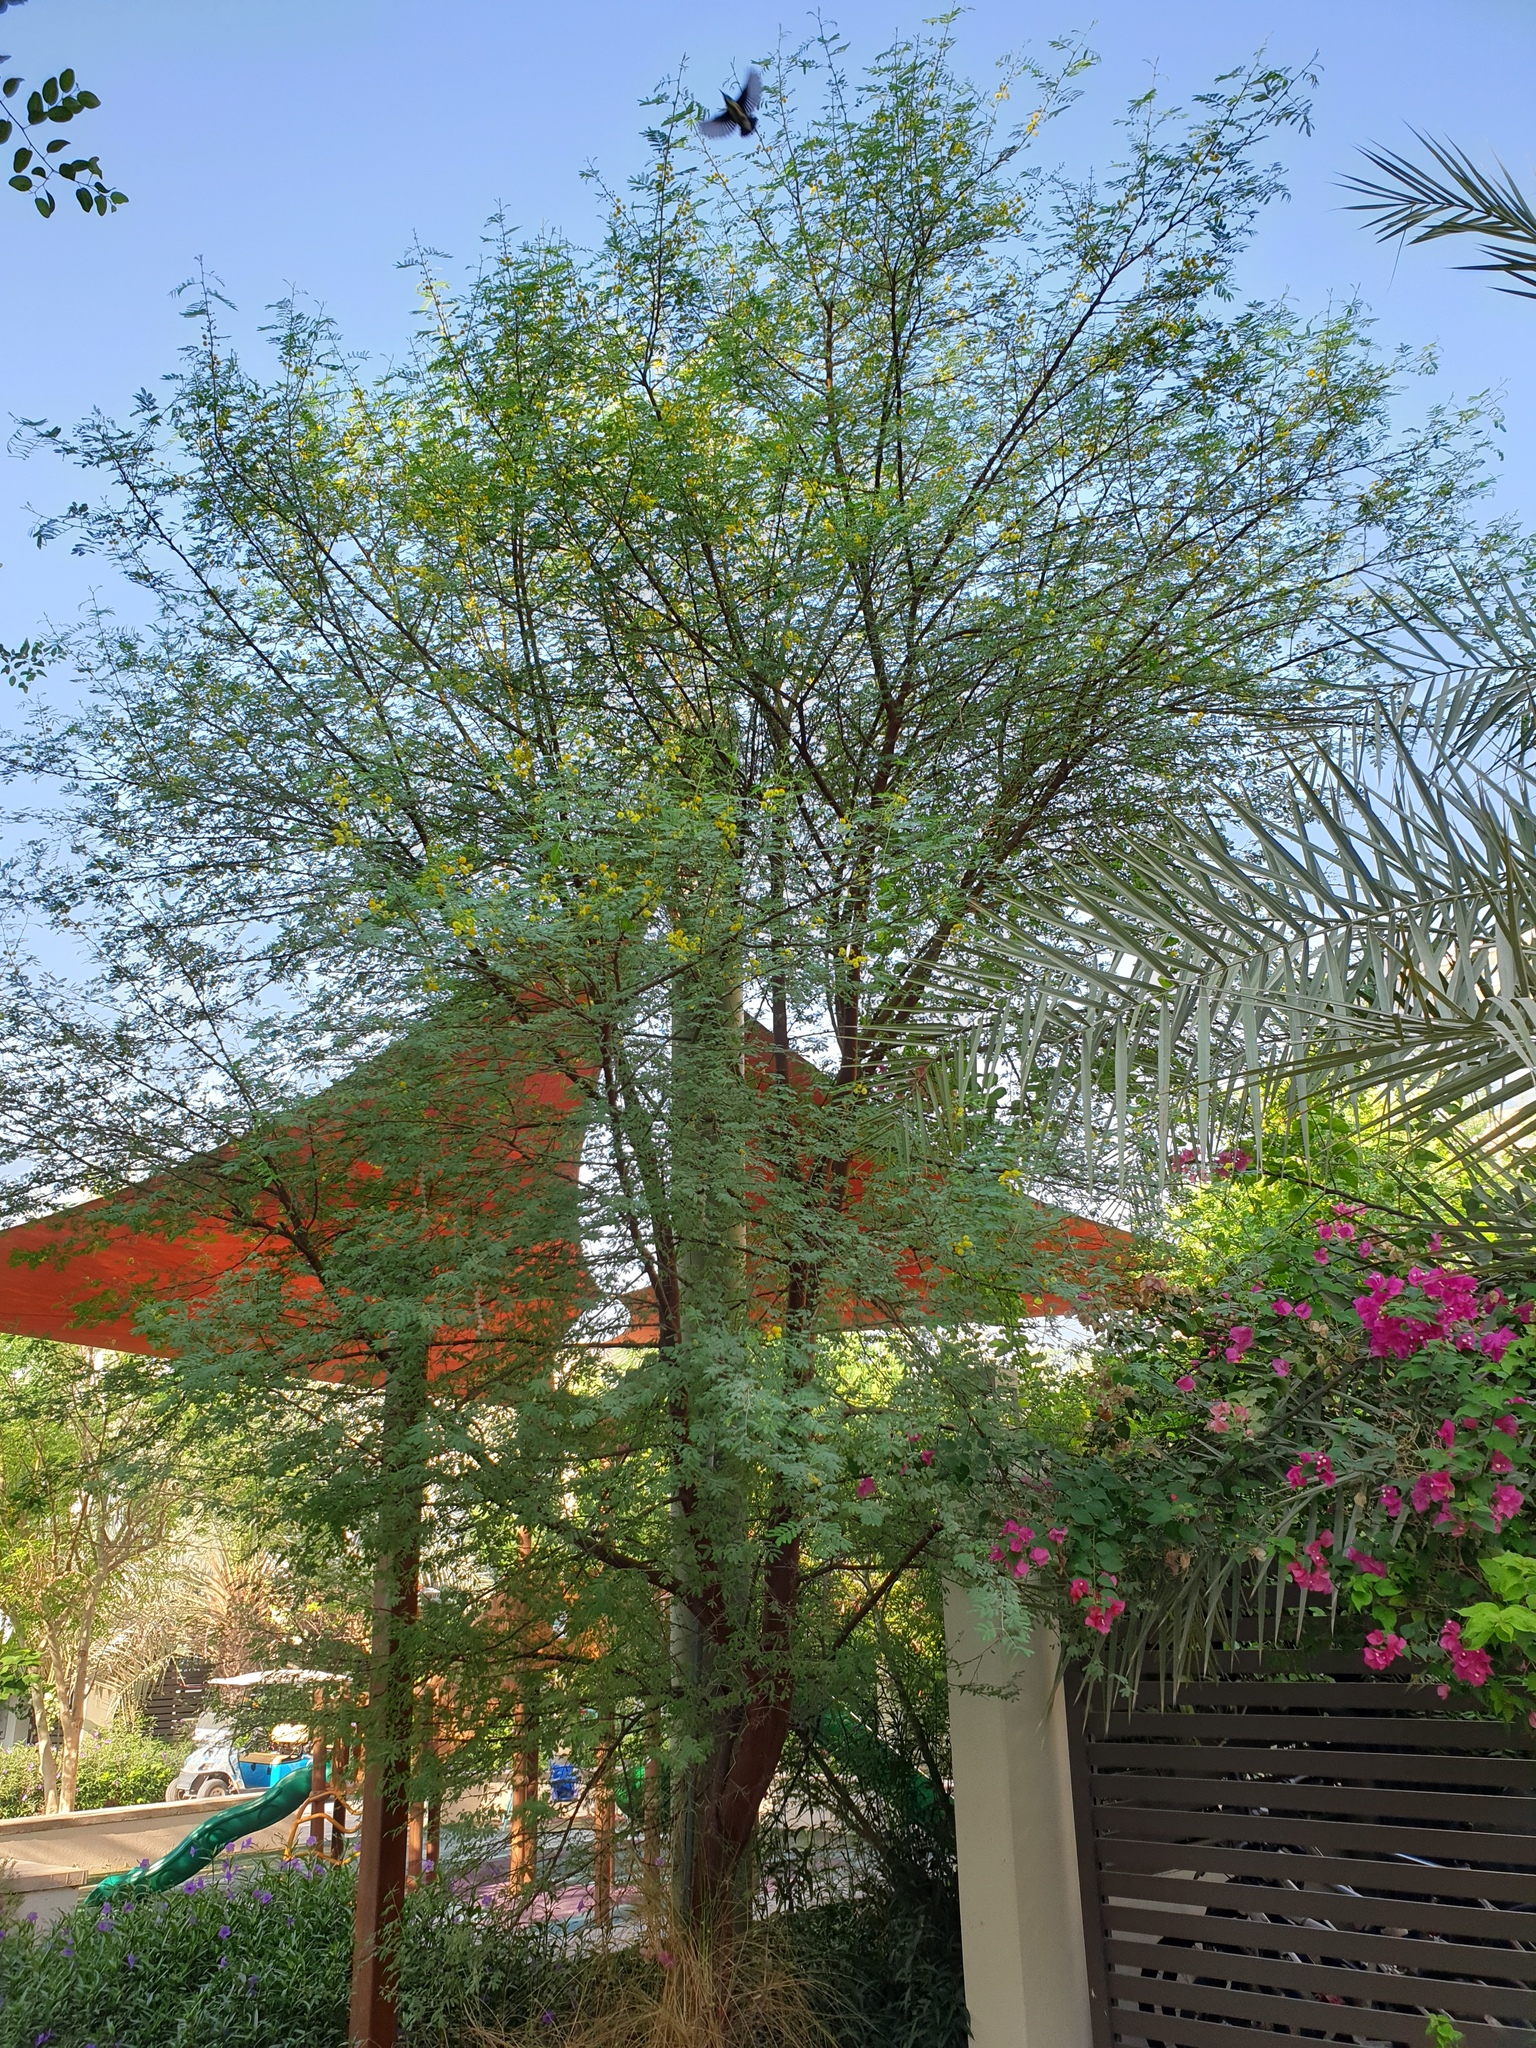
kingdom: Plantae
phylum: Tracheophyta
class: Magnoliopsida
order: Fabales
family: Fabaceae
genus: Vachellia
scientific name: Vachellia nilotica
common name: Arabic gumtree
